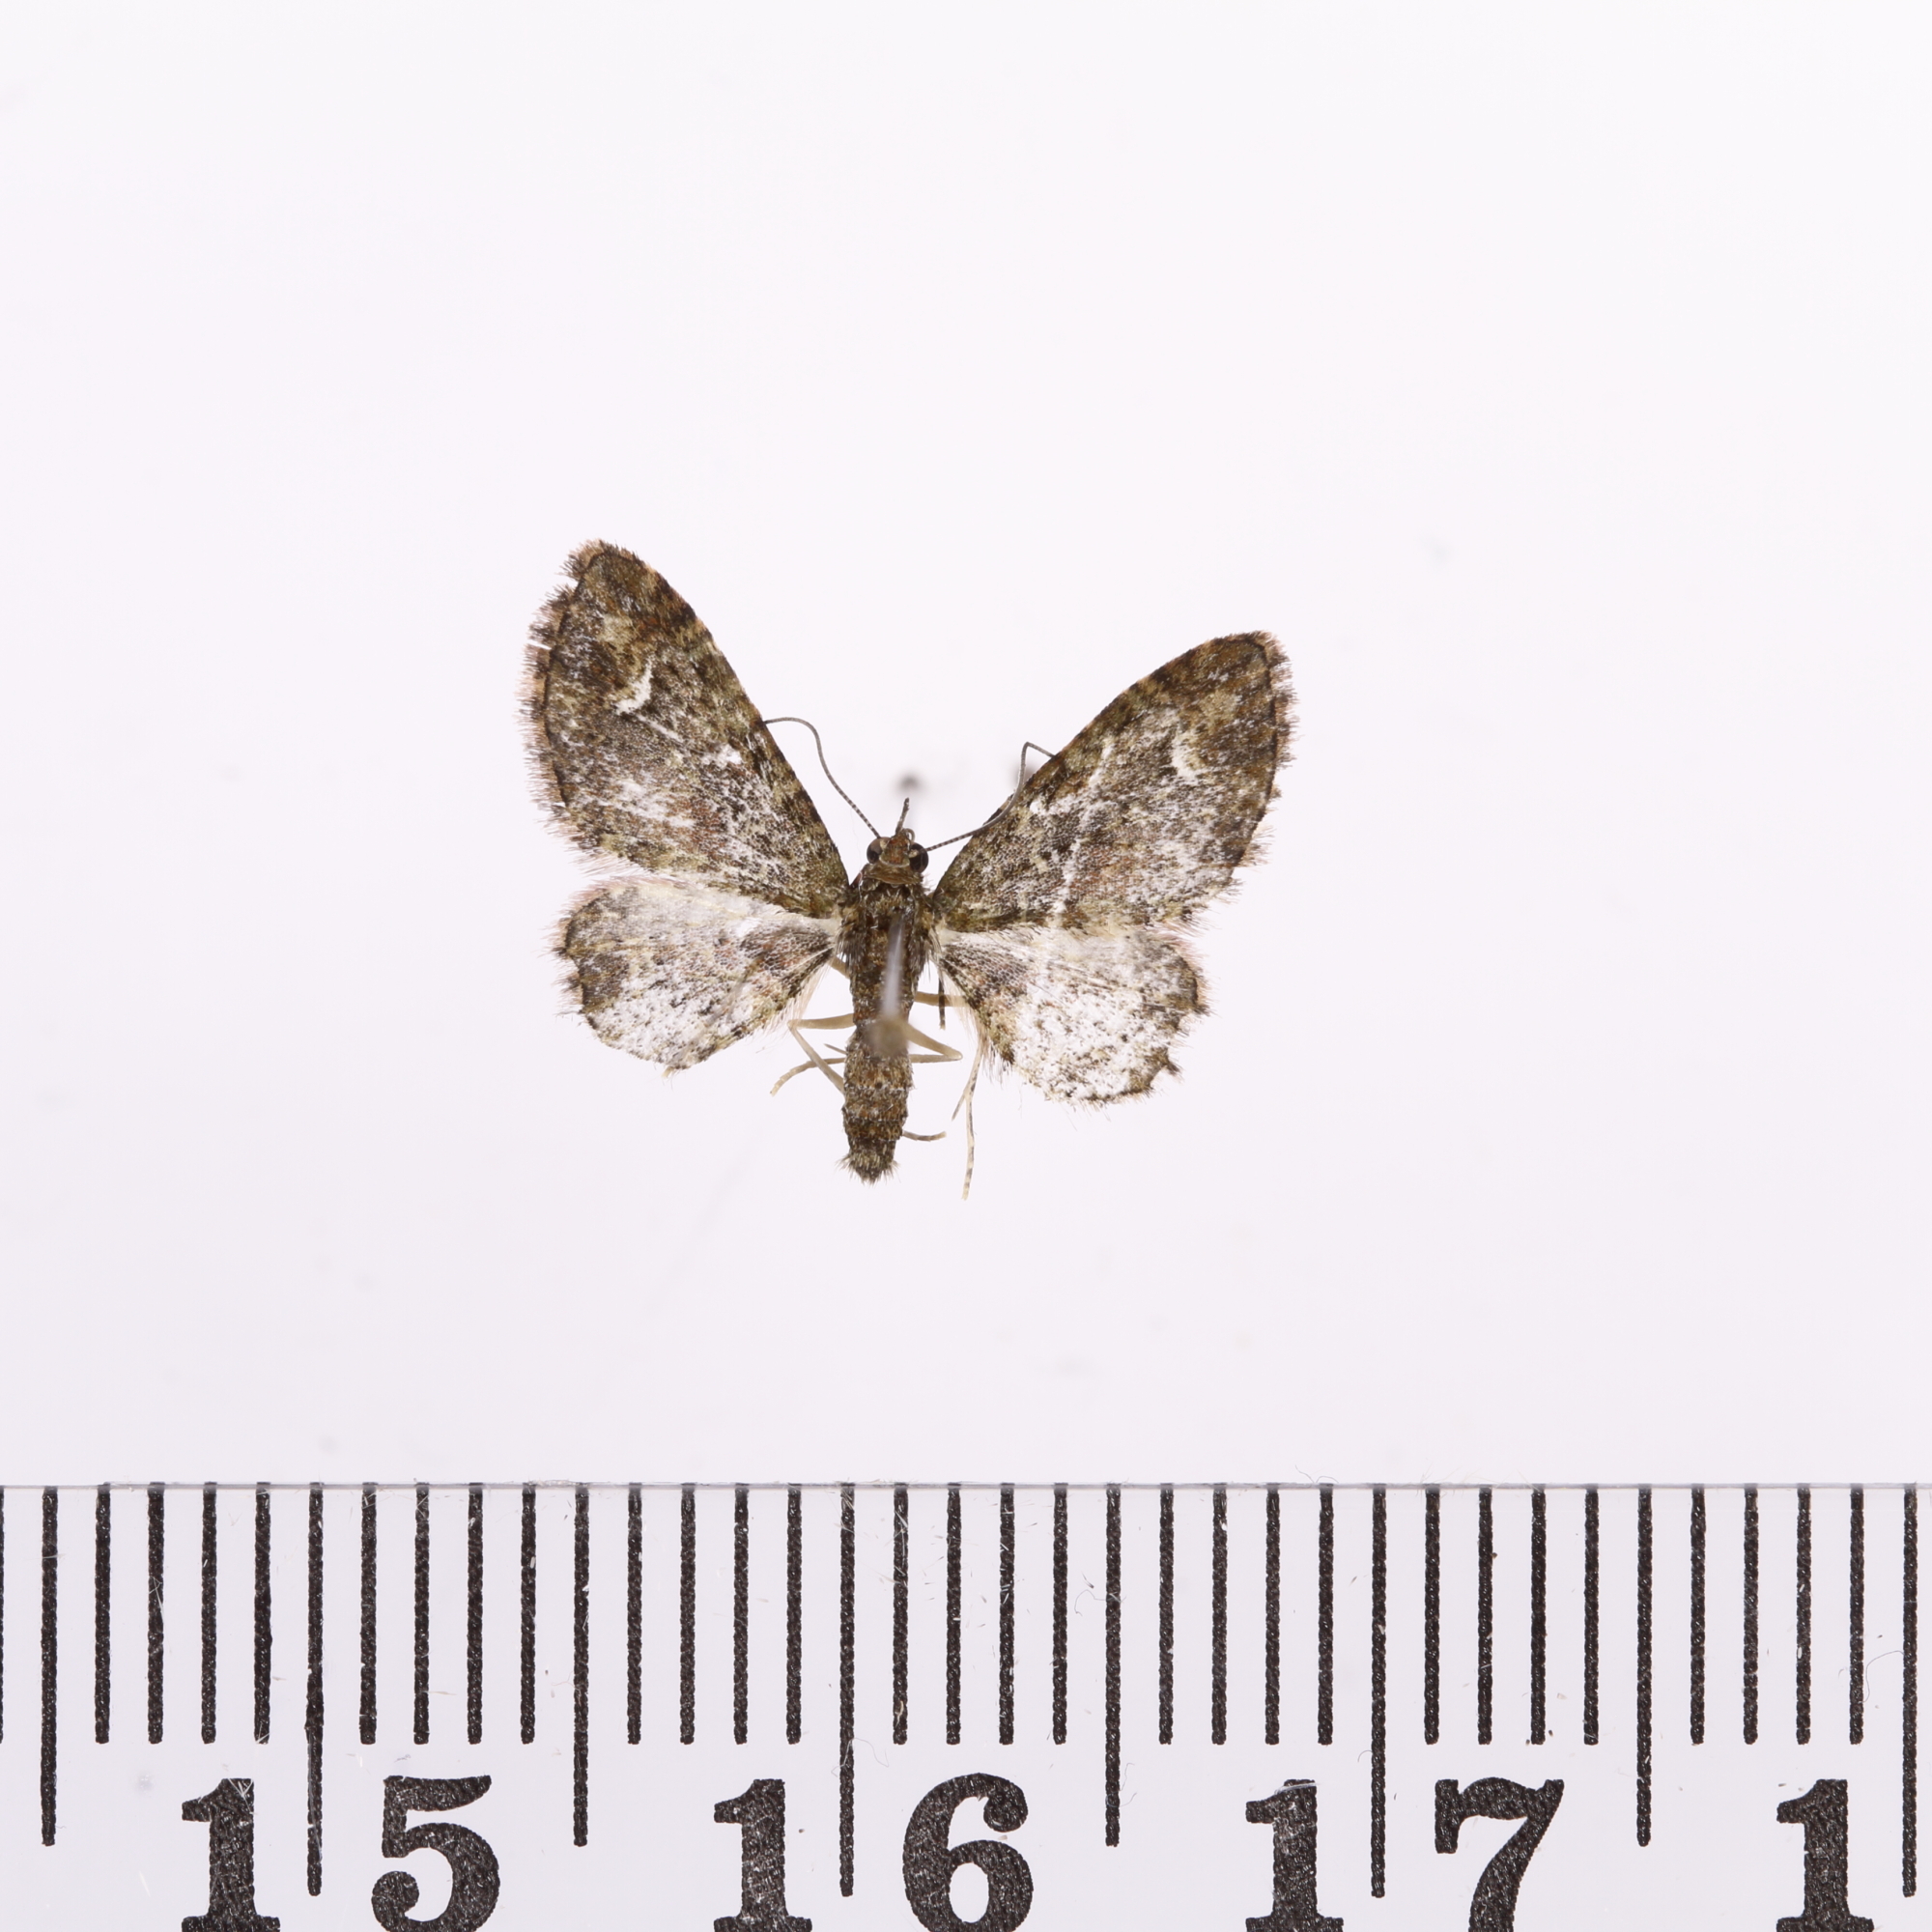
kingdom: Animalia
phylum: Arthropoda
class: Insecta
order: Lepidoptera
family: Geometridae
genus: Pasiphilodes
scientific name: Pasiphilodes testulata
